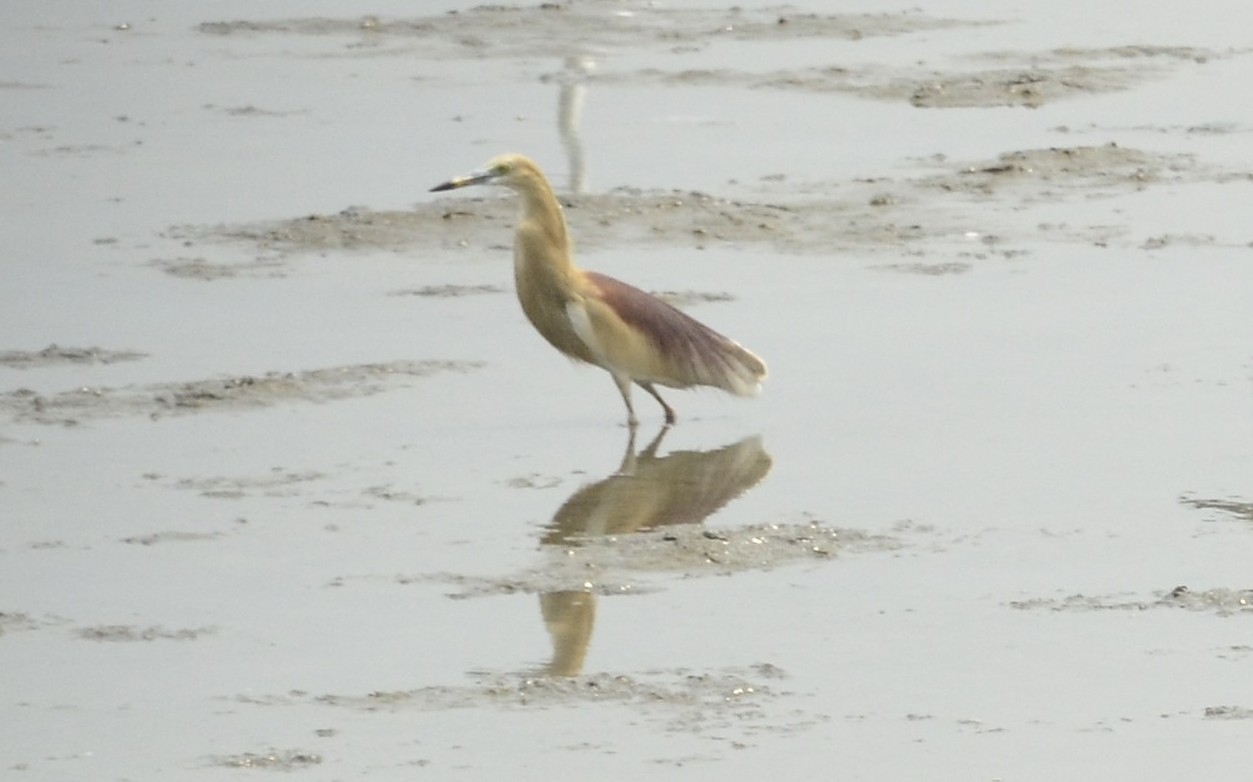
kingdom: Animalia
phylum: Chordata
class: Aves
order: Pelecaniformes
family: Ardeidae
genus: Ardeola
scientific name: Ardeola grayii
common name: Indian pond heron
